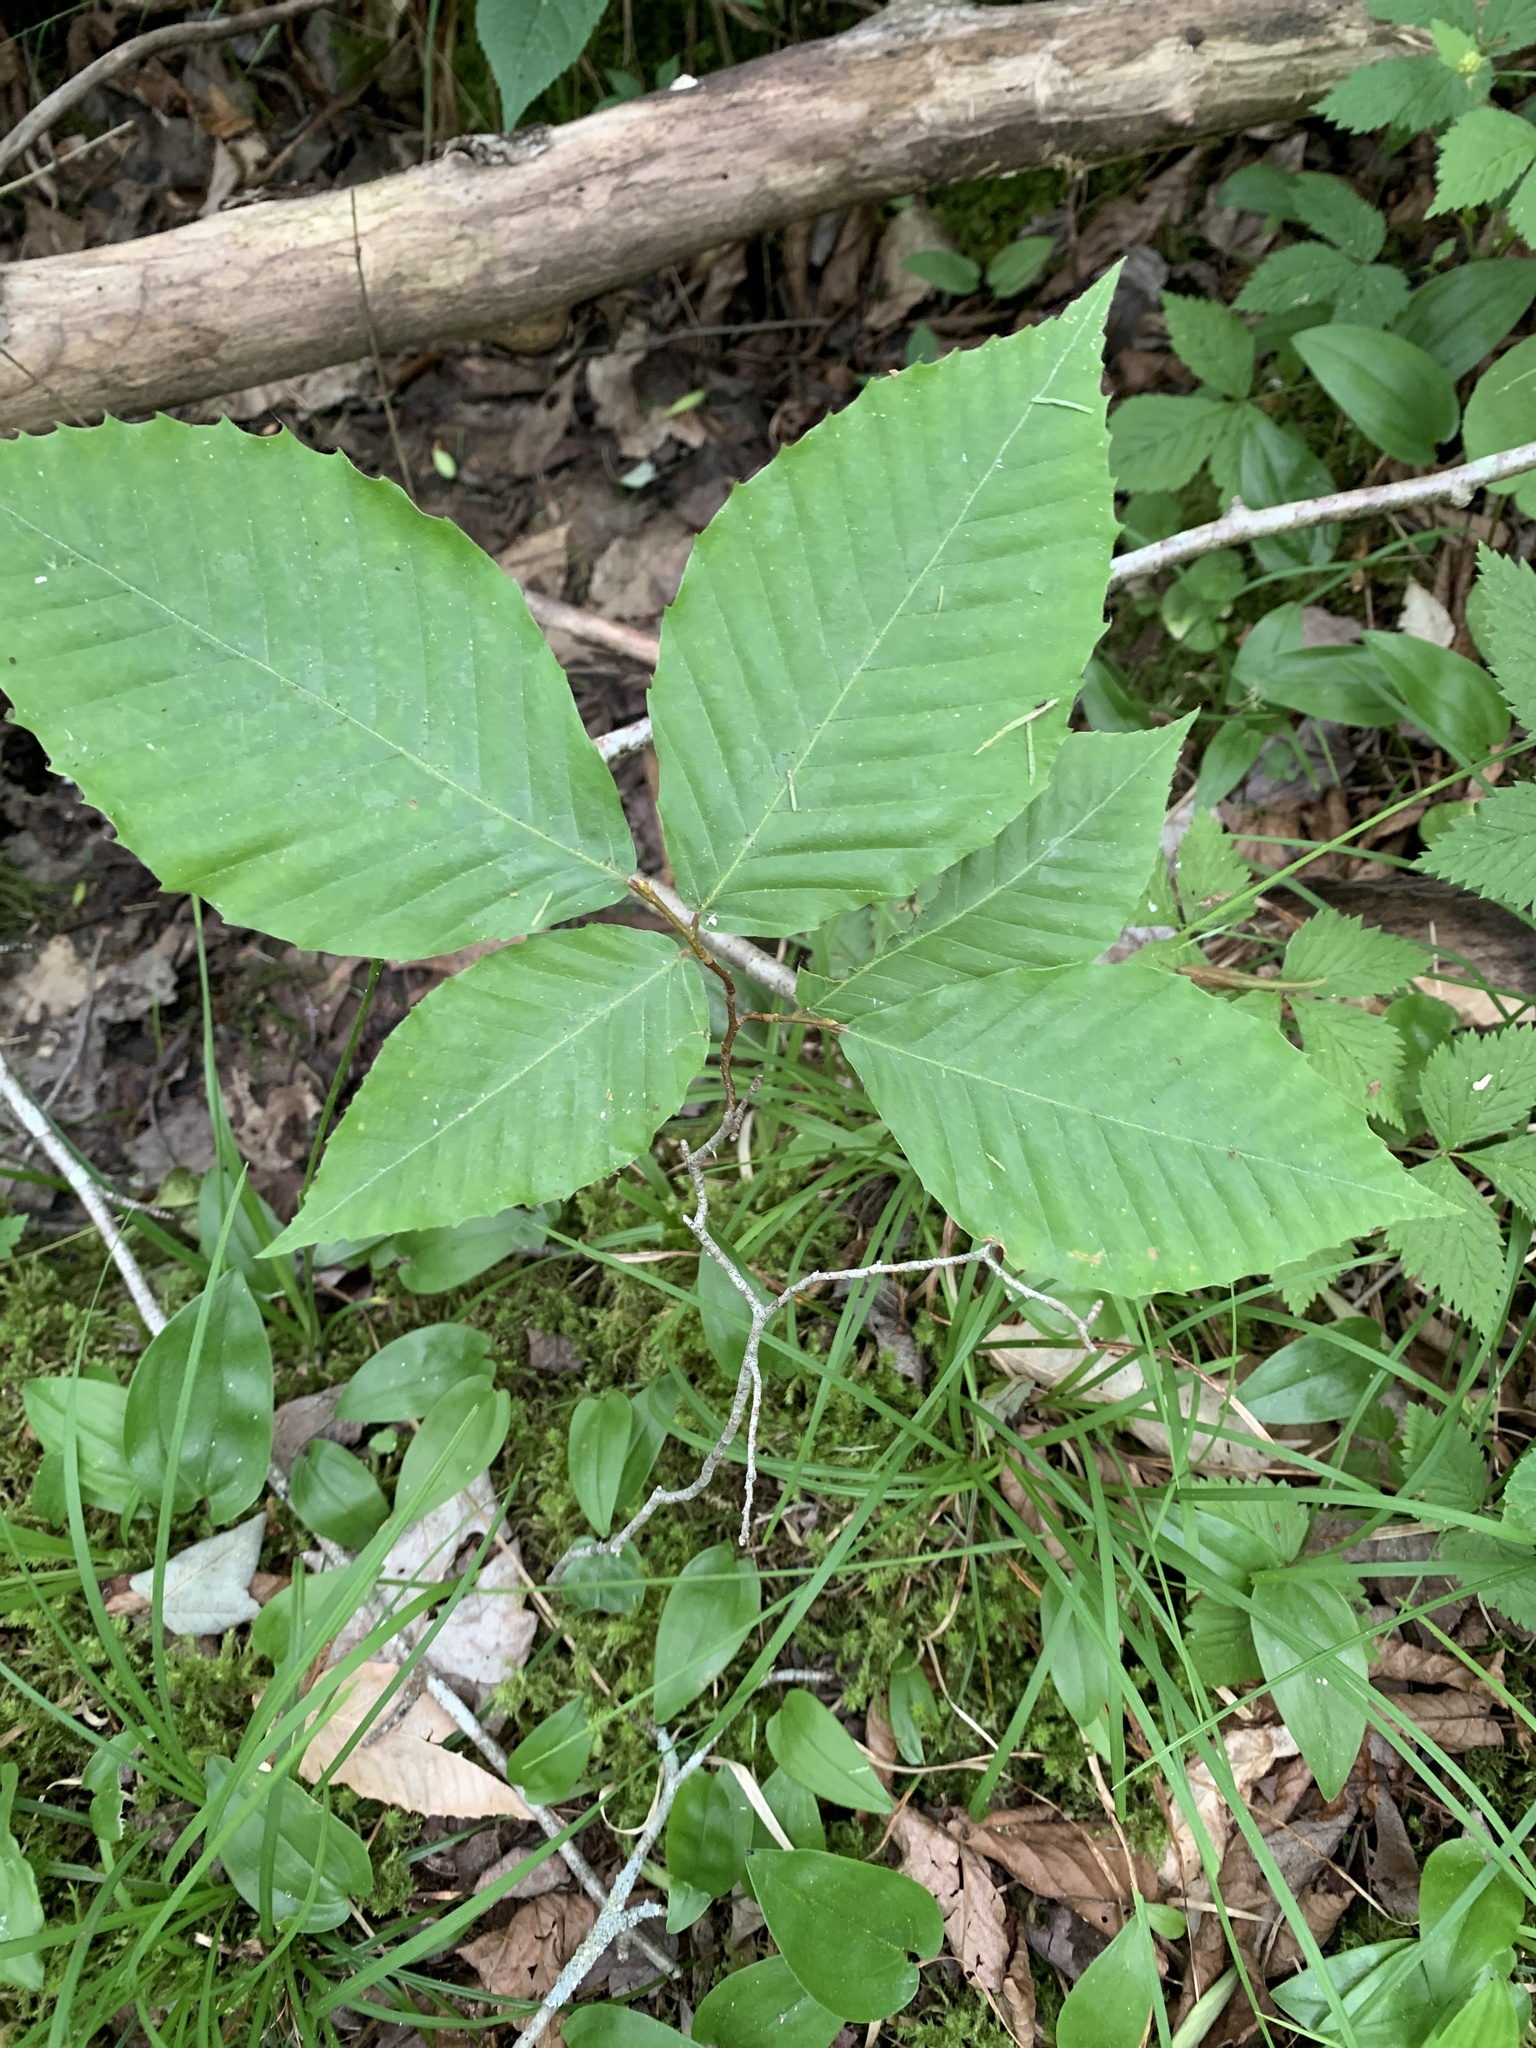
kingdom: Plantae
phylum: Tracheophyta
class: Magnoliopsida
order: Fagales
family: Fagaceae
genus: Fagus
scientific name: Fagus grandifolia
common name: American beech
